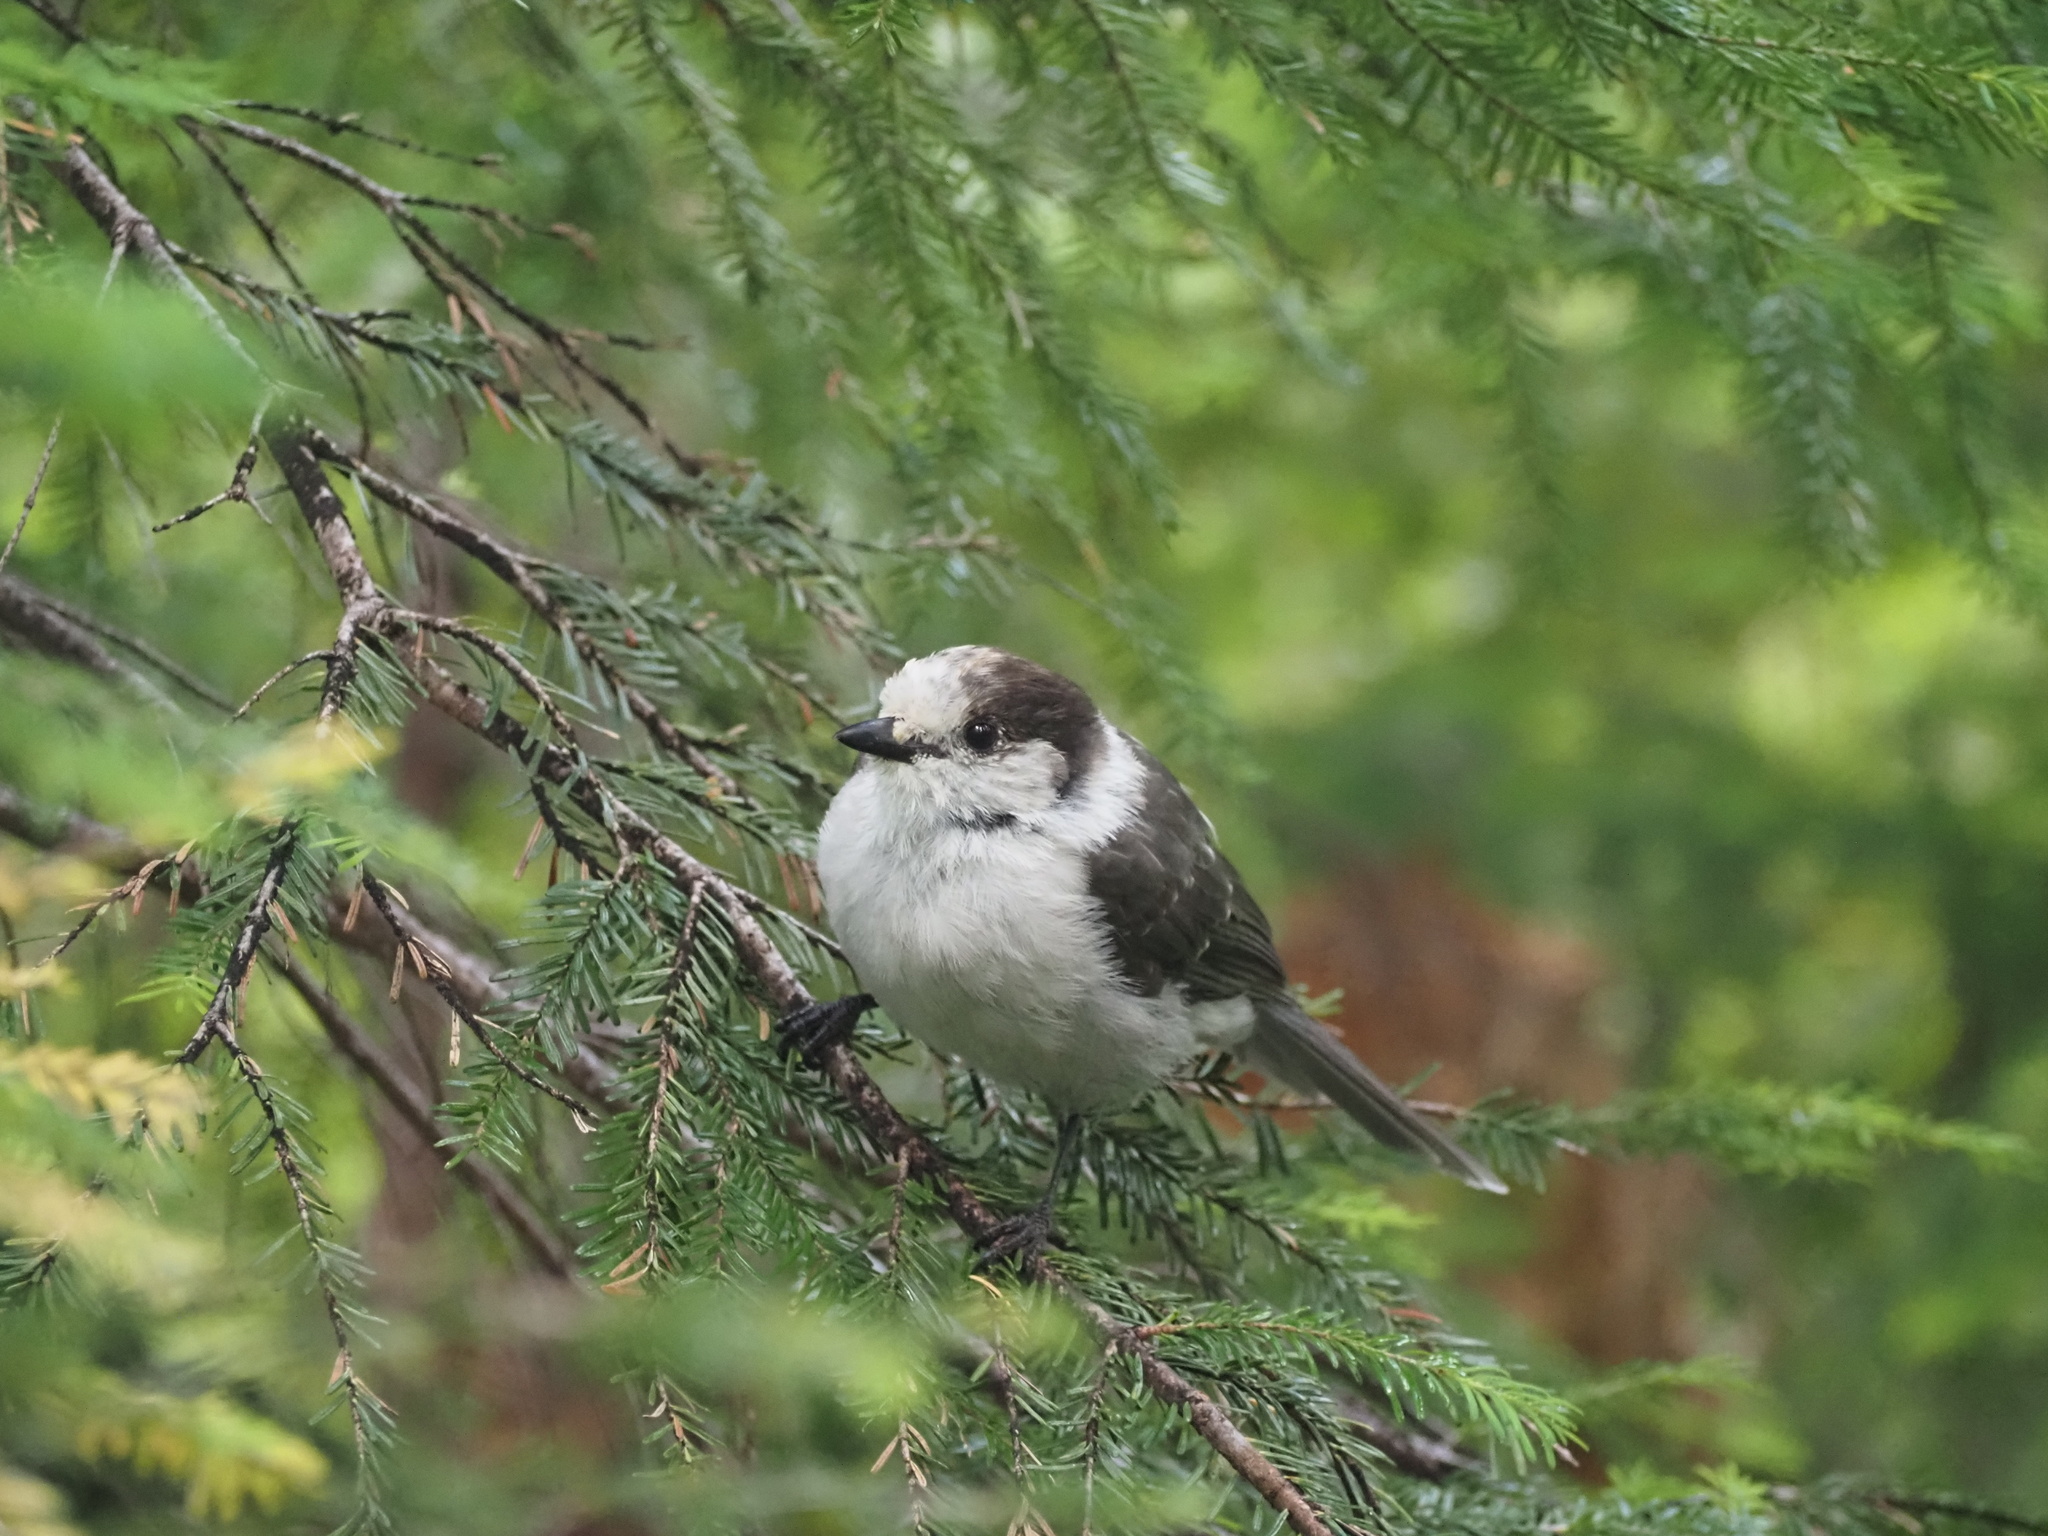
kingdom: Animalia
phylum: Chordata
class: Aves
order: Passeriformes
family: Corvidae
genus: Perisoreus
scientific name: Perisoreus canadensis
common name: Gray jay
